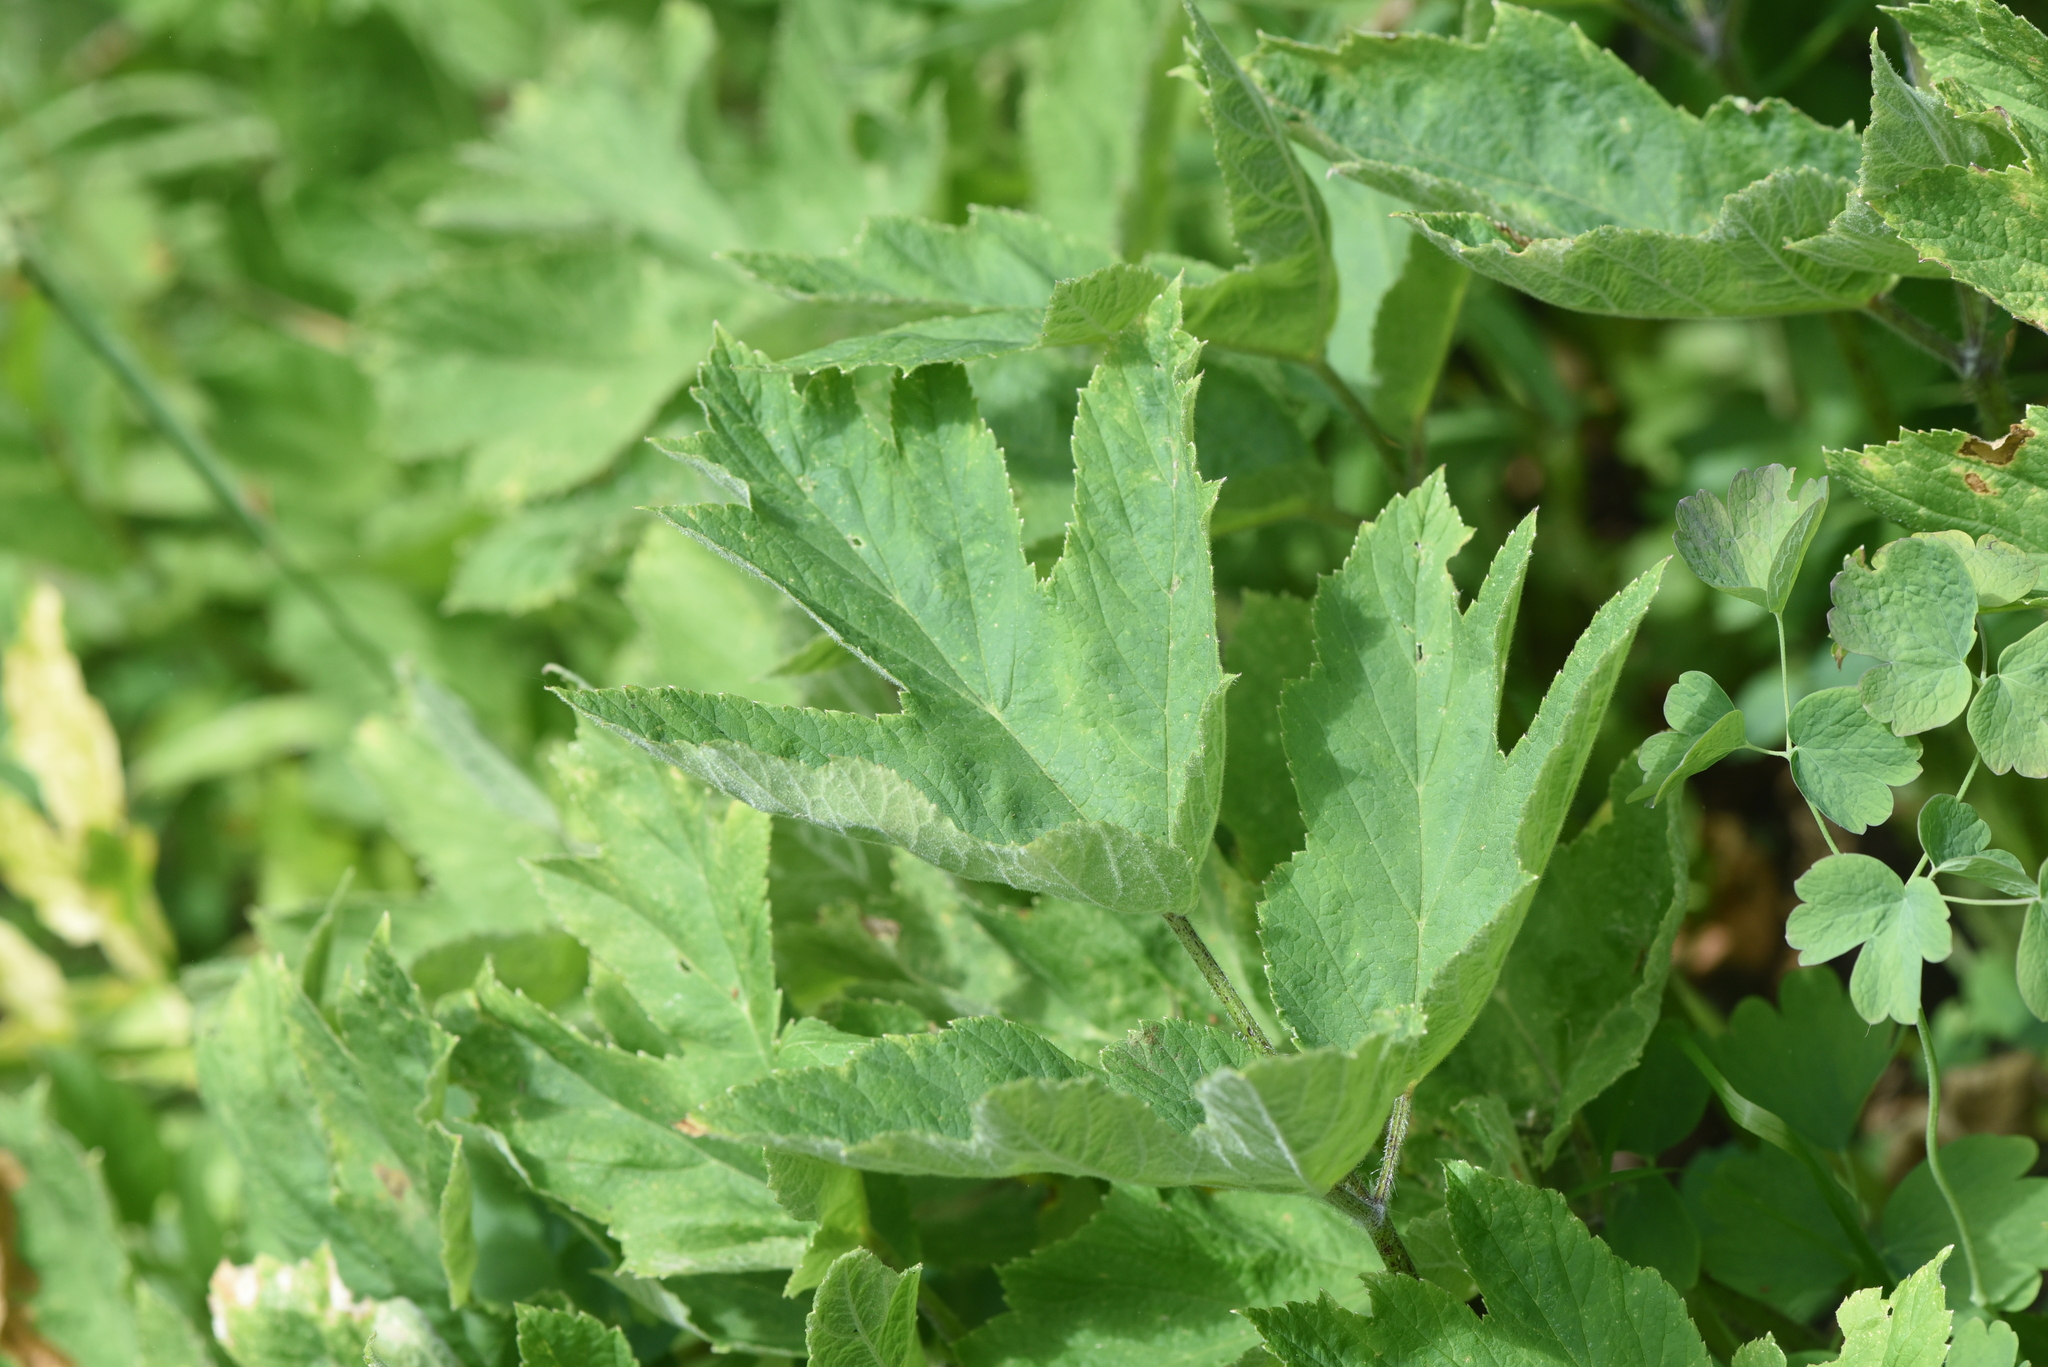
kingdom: Plantae
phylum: Tracheophyta
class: Magnoliopsida
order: Apiales
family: Apiaceae
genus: Heracleum
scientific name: Heracleum maximum
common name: American cow parsnip
